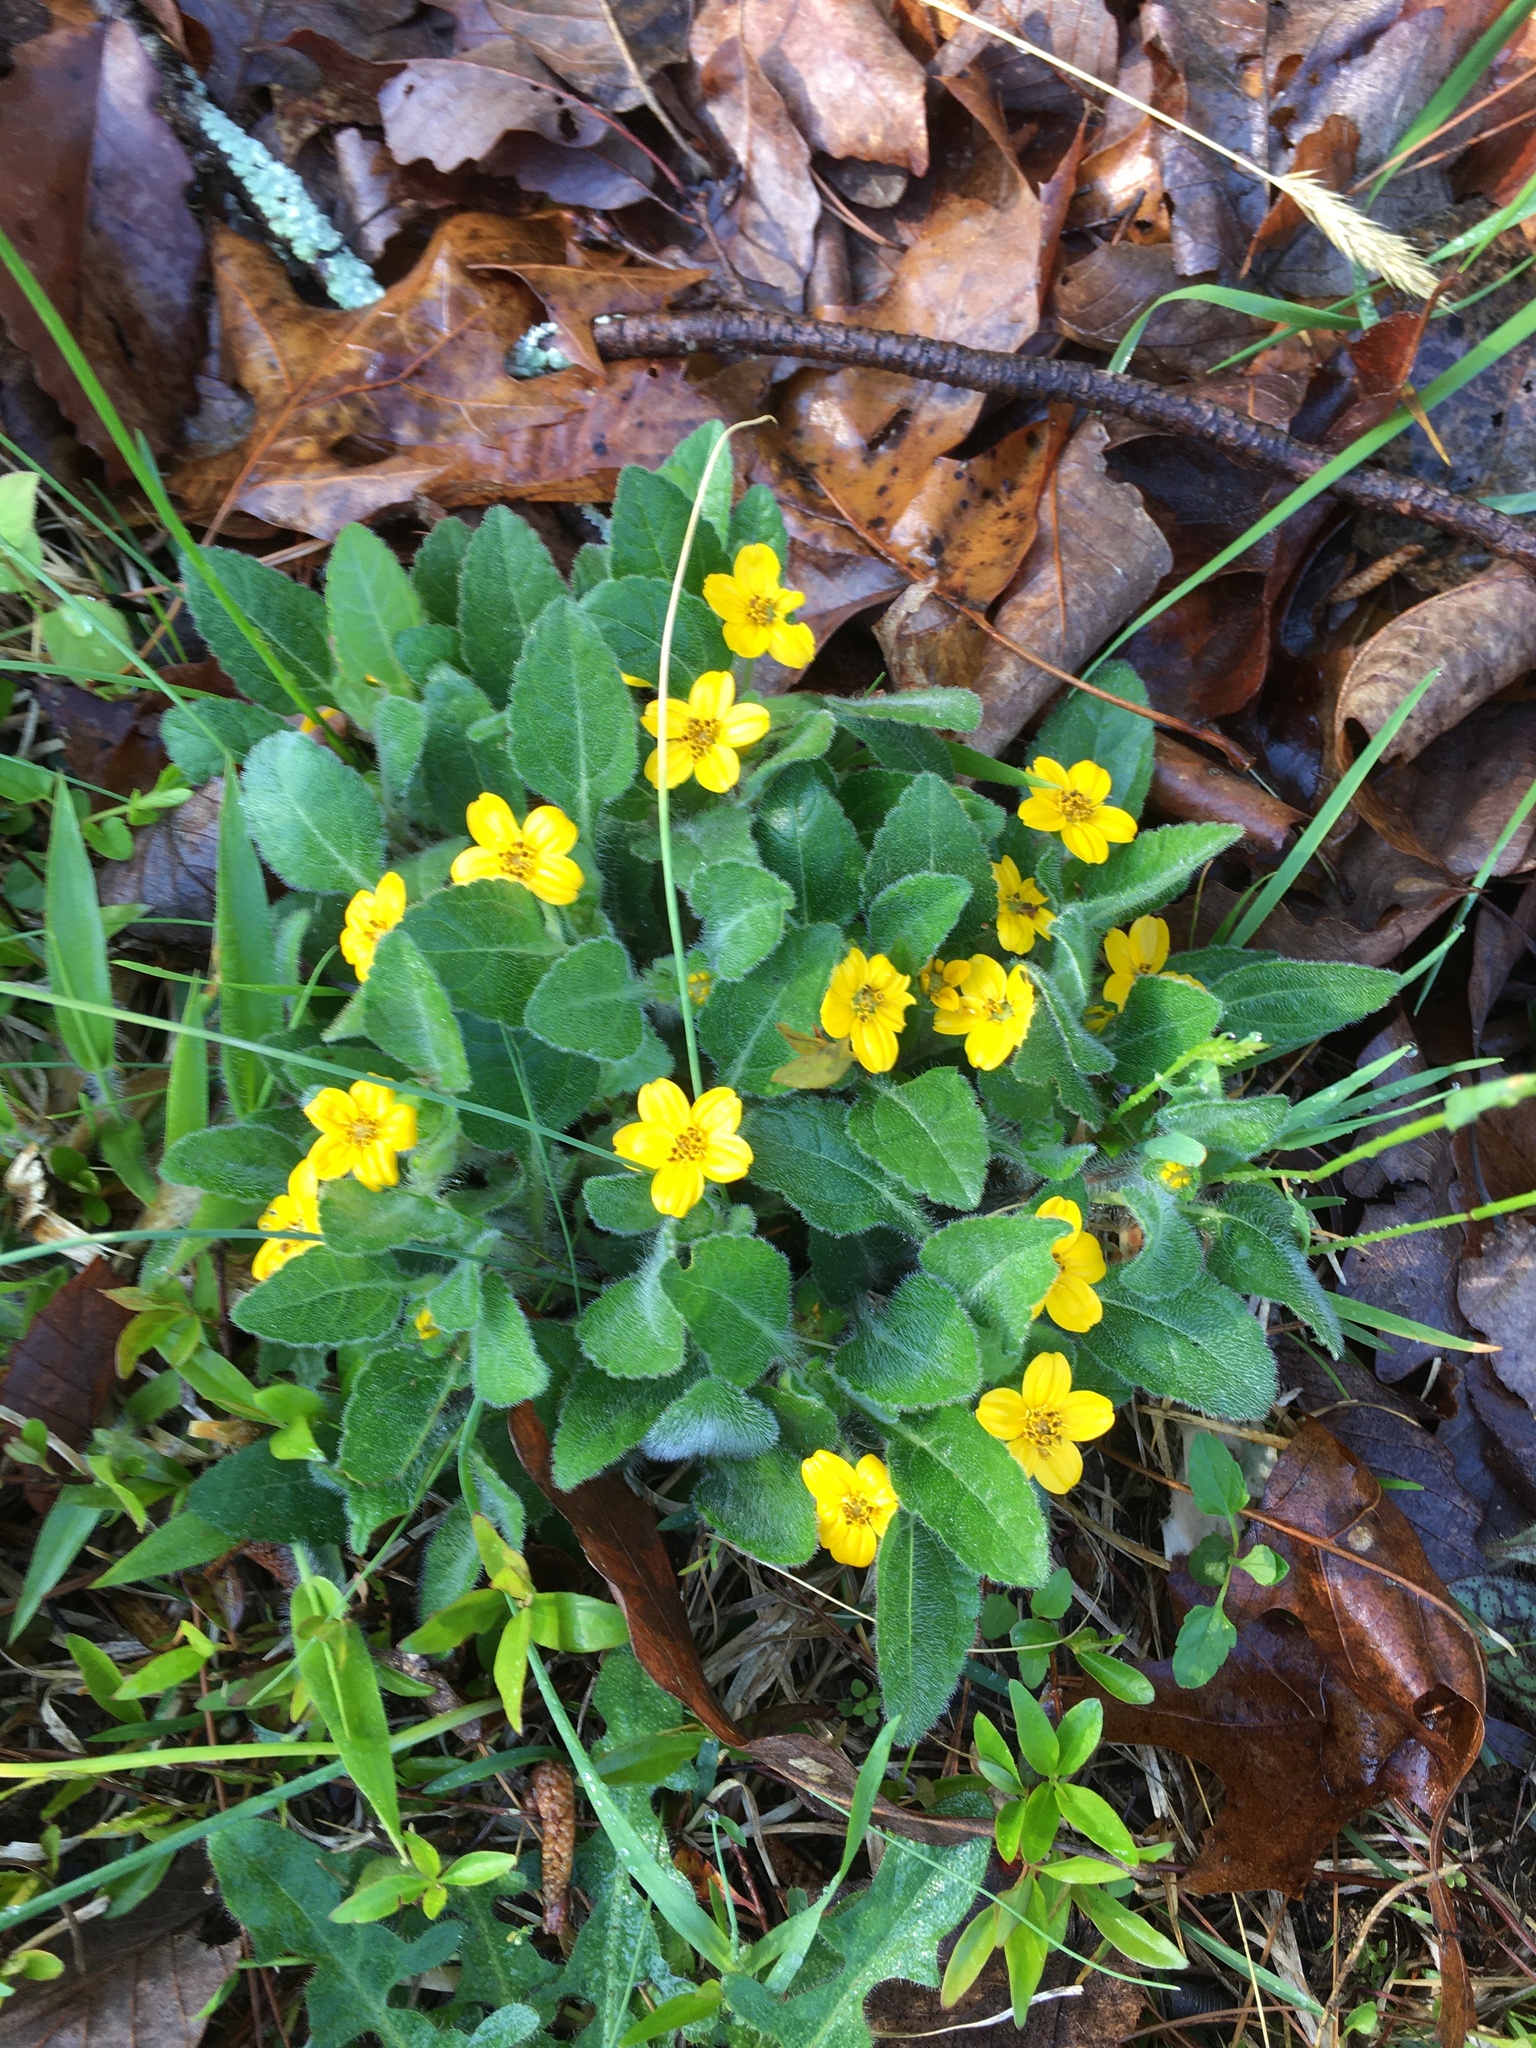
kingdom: Plantae
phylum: Tracheophyta
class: Magnoliopsida
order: Asterales
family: Asteraceae
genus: Chrysogonum
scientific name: Chrysogonum virginianum
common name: Golden-knee
